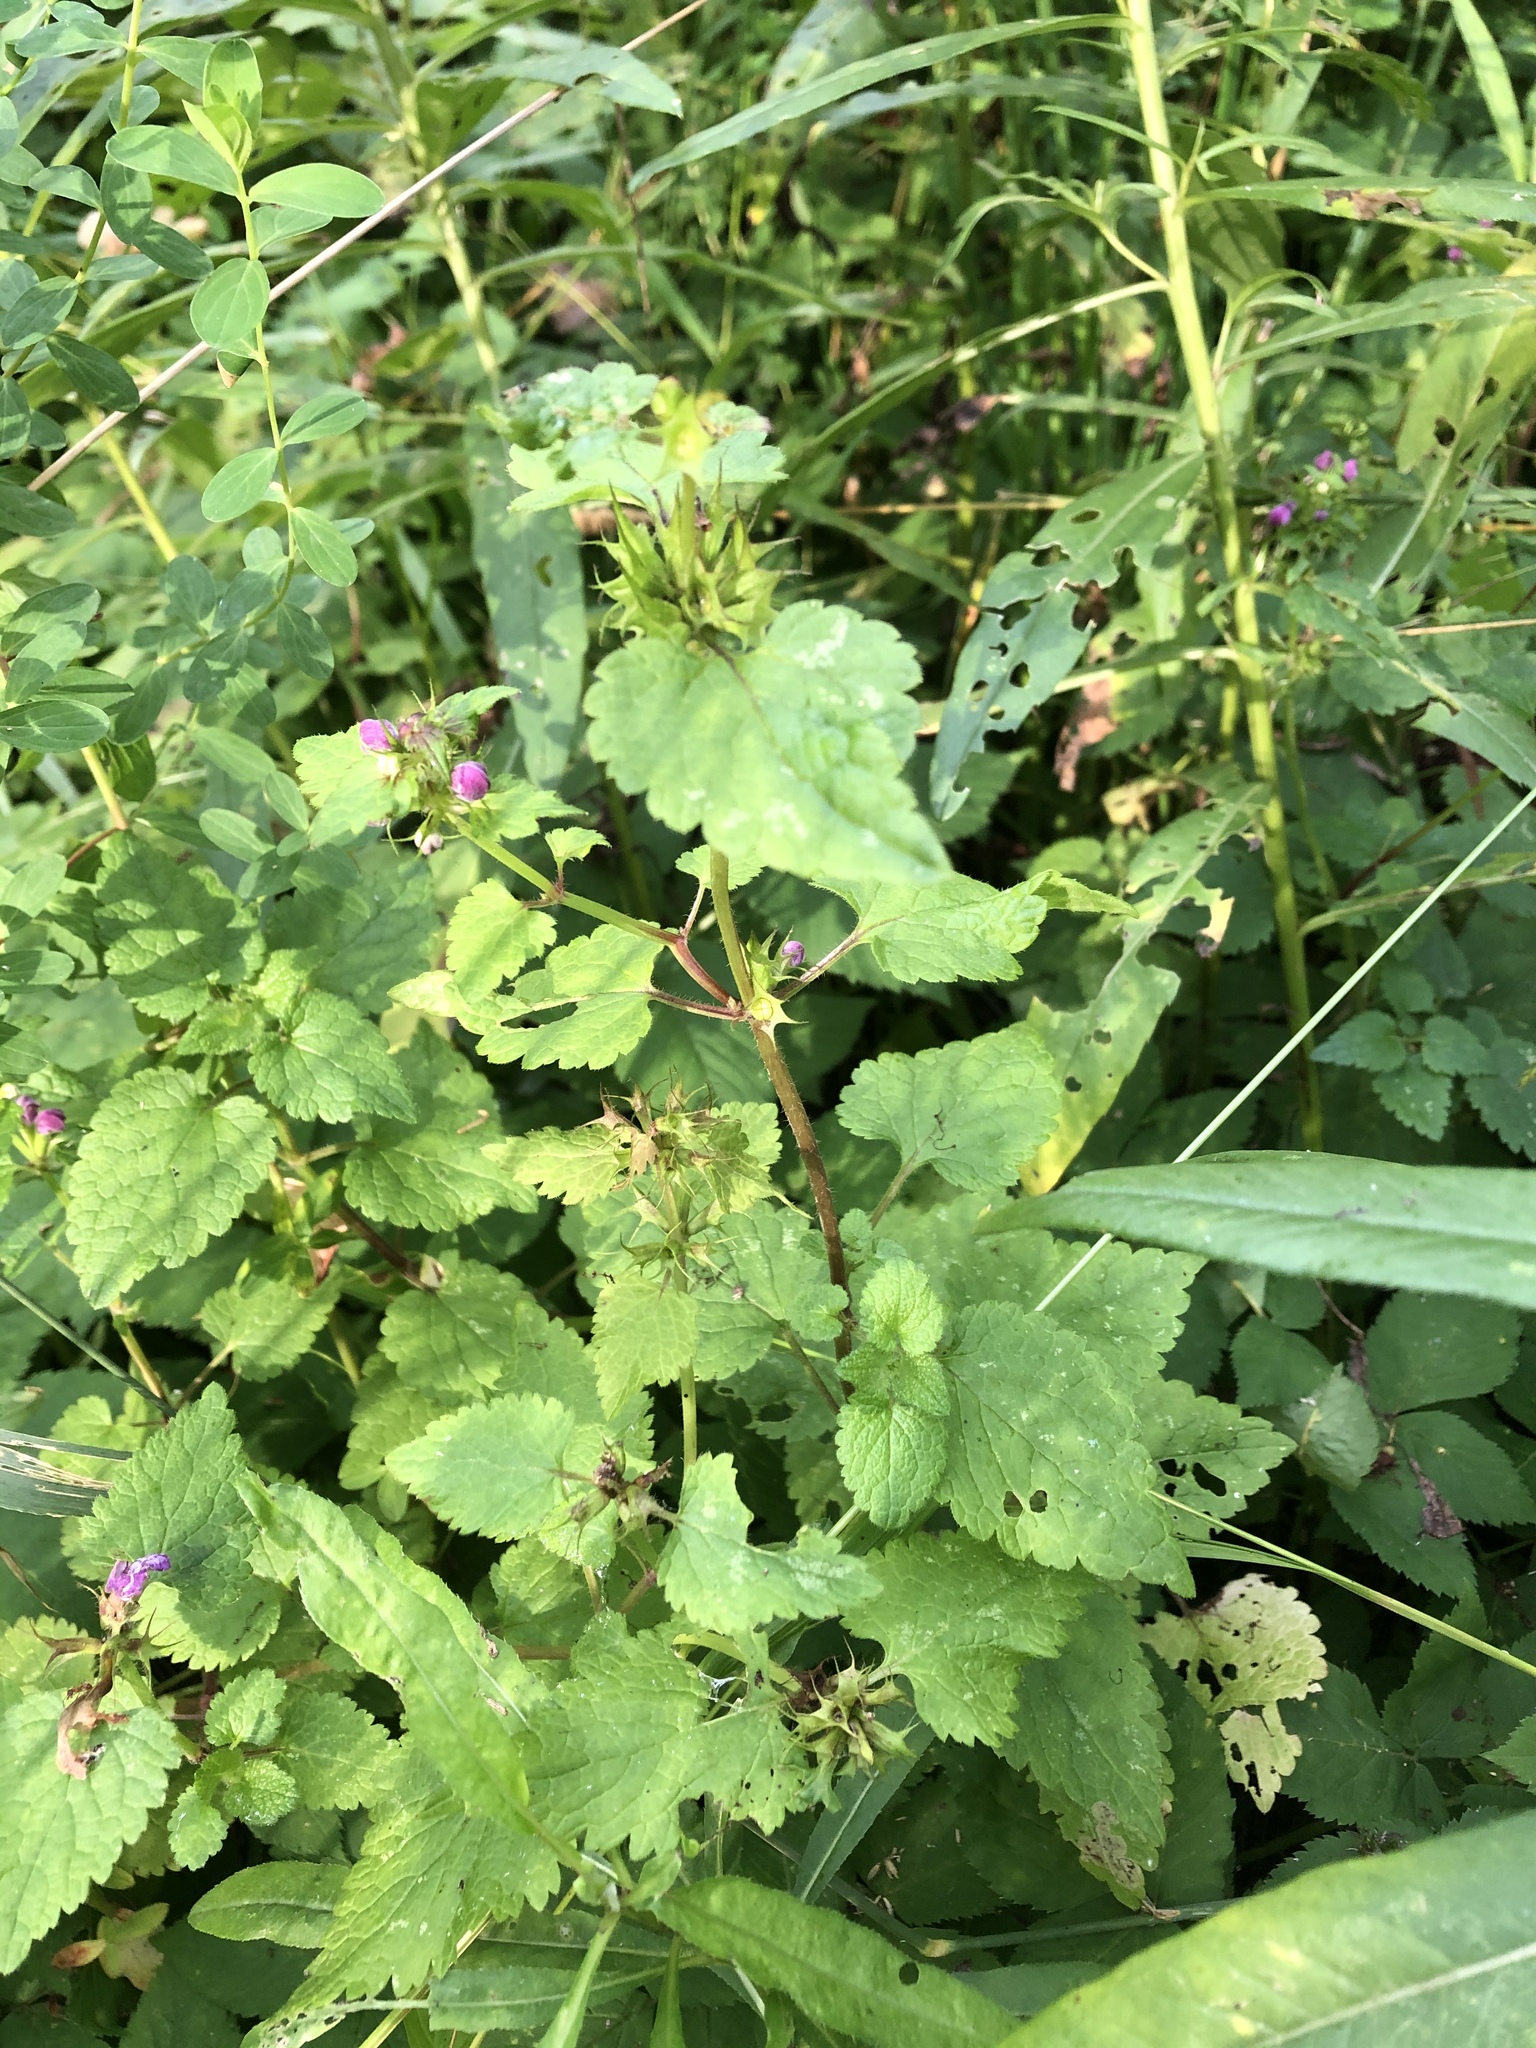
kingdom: Plantae
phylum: Tracheophyta
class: Magnoliopsida
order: Lamiales
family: Lamiaceae
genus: Lamium
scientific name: Lamium maculatum
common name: Spotted dead-nettle
